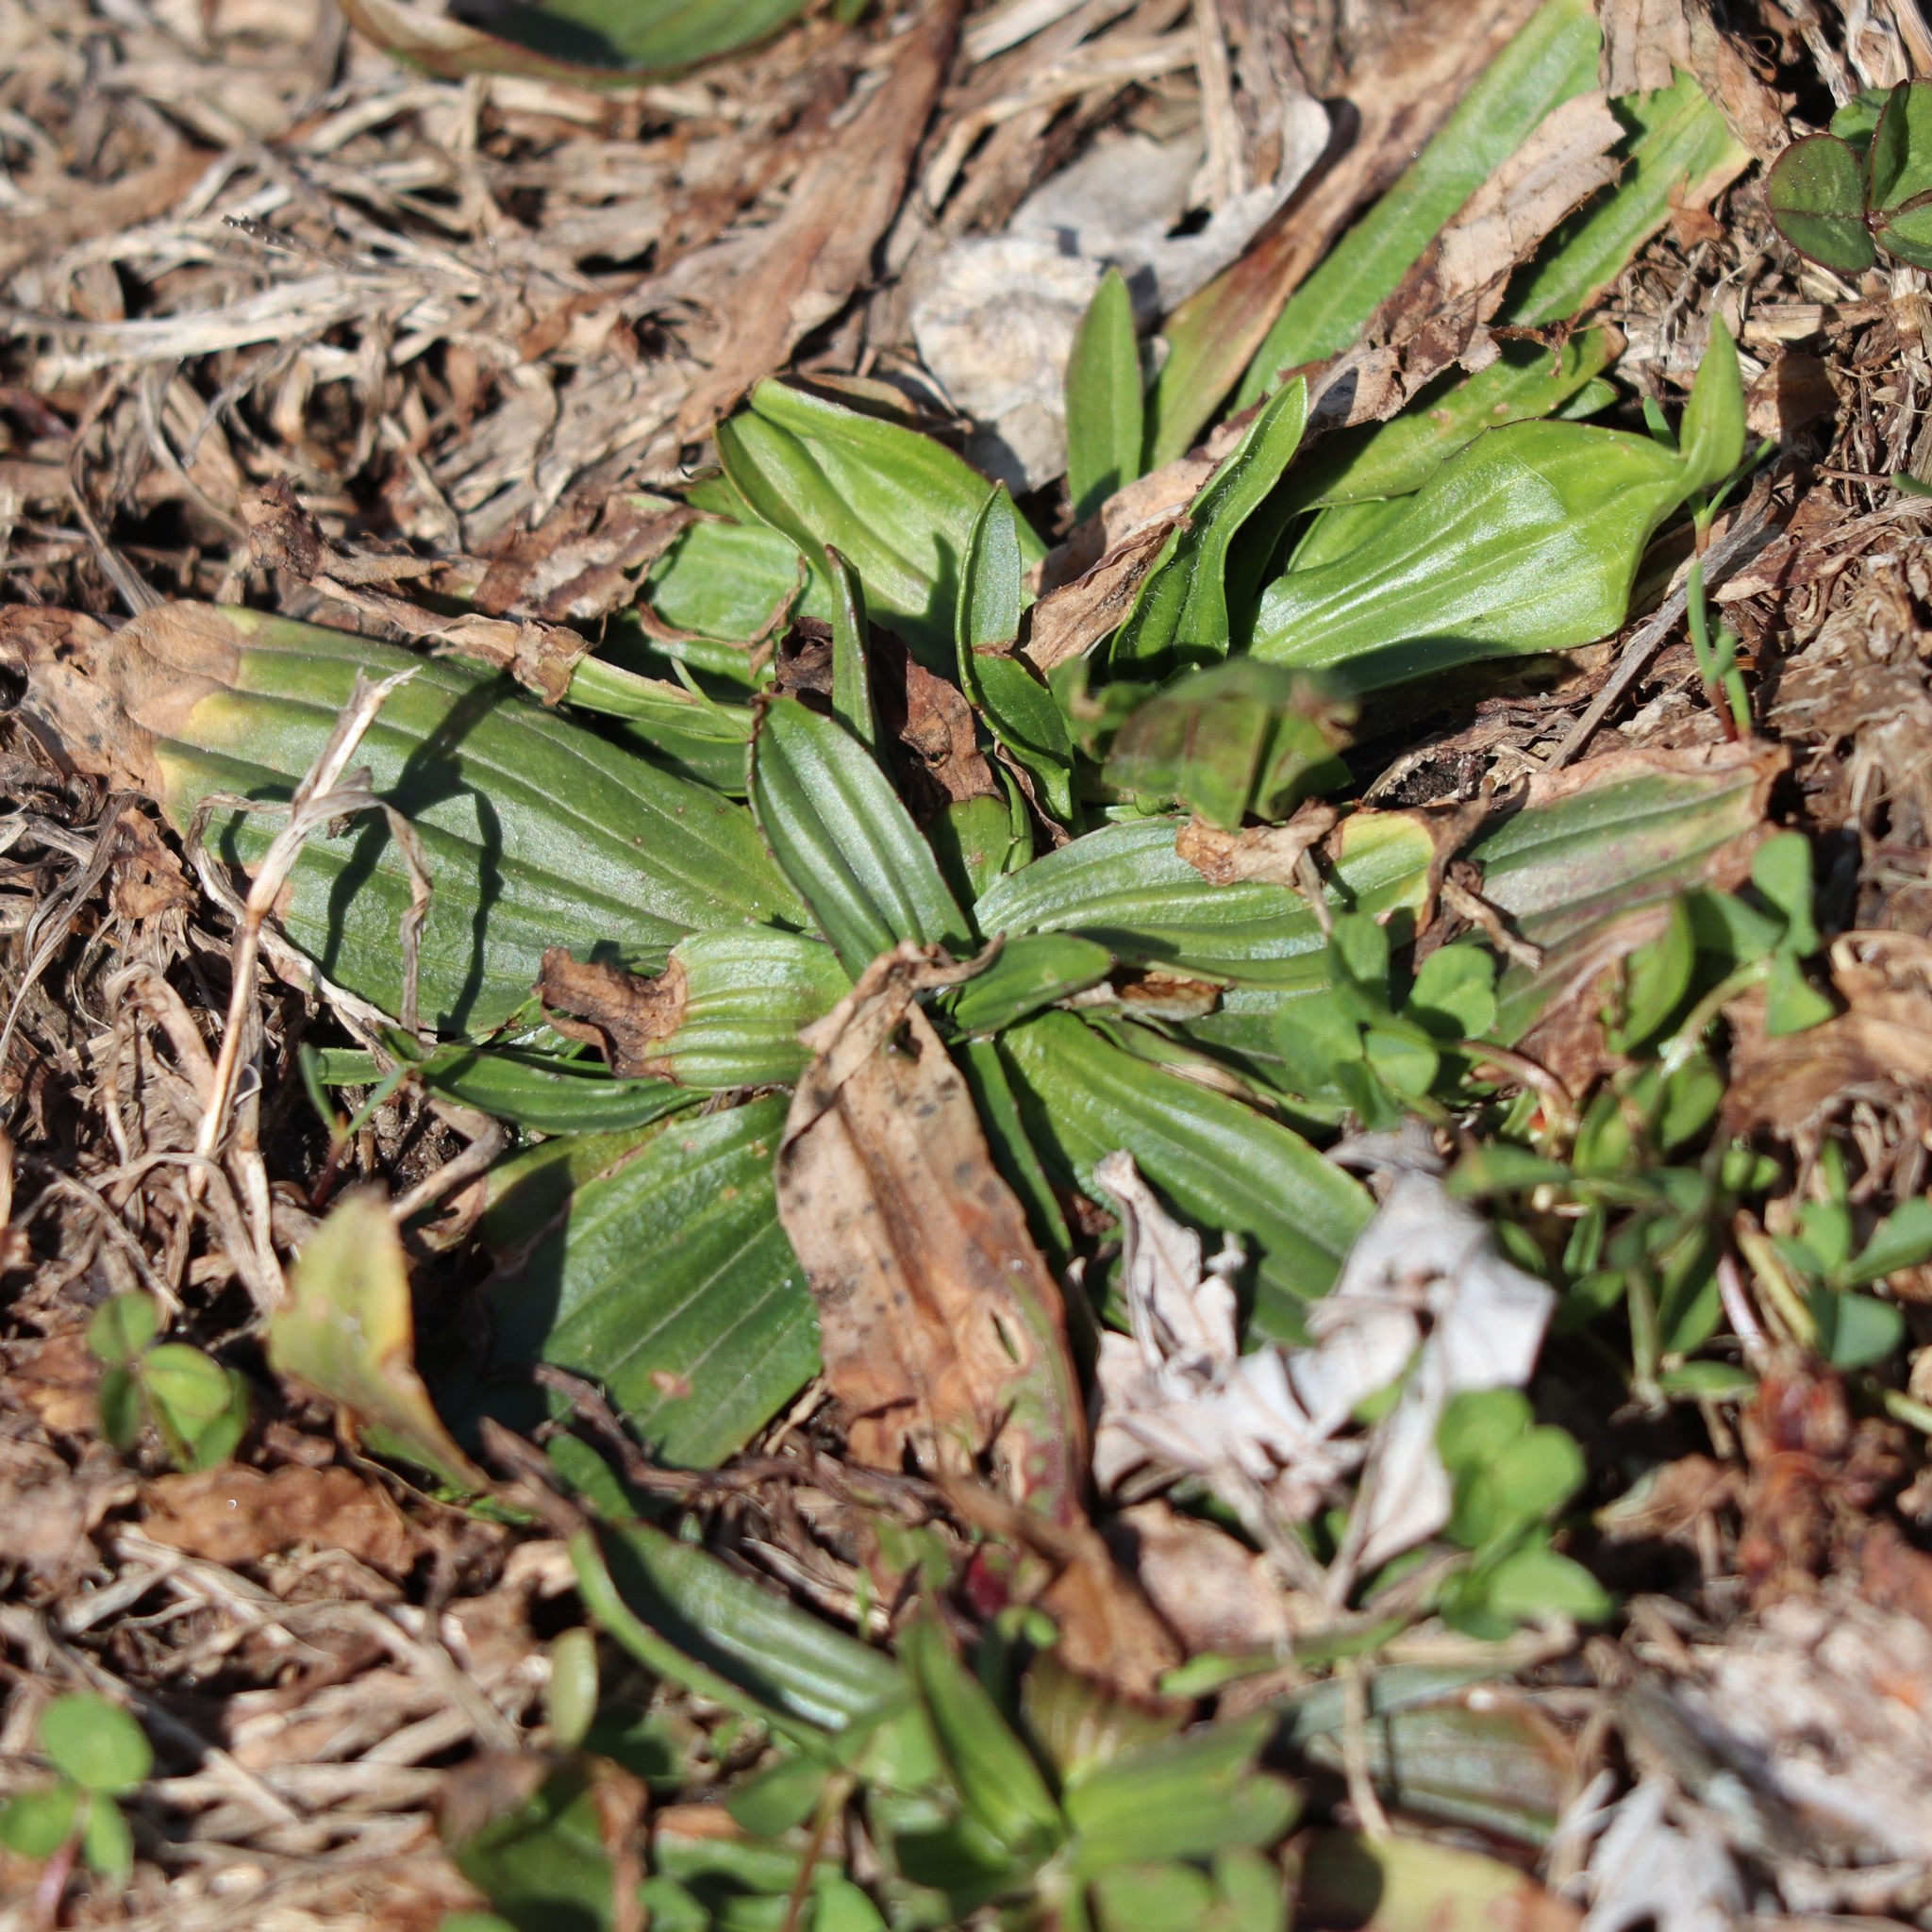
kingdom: Plantae
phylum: Tracheophyta
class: Magnoliopsida
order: Lamiales
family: Plantaginaceae
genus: Plantago
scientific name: Plantago lanceolata
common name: Ribwort plantain
